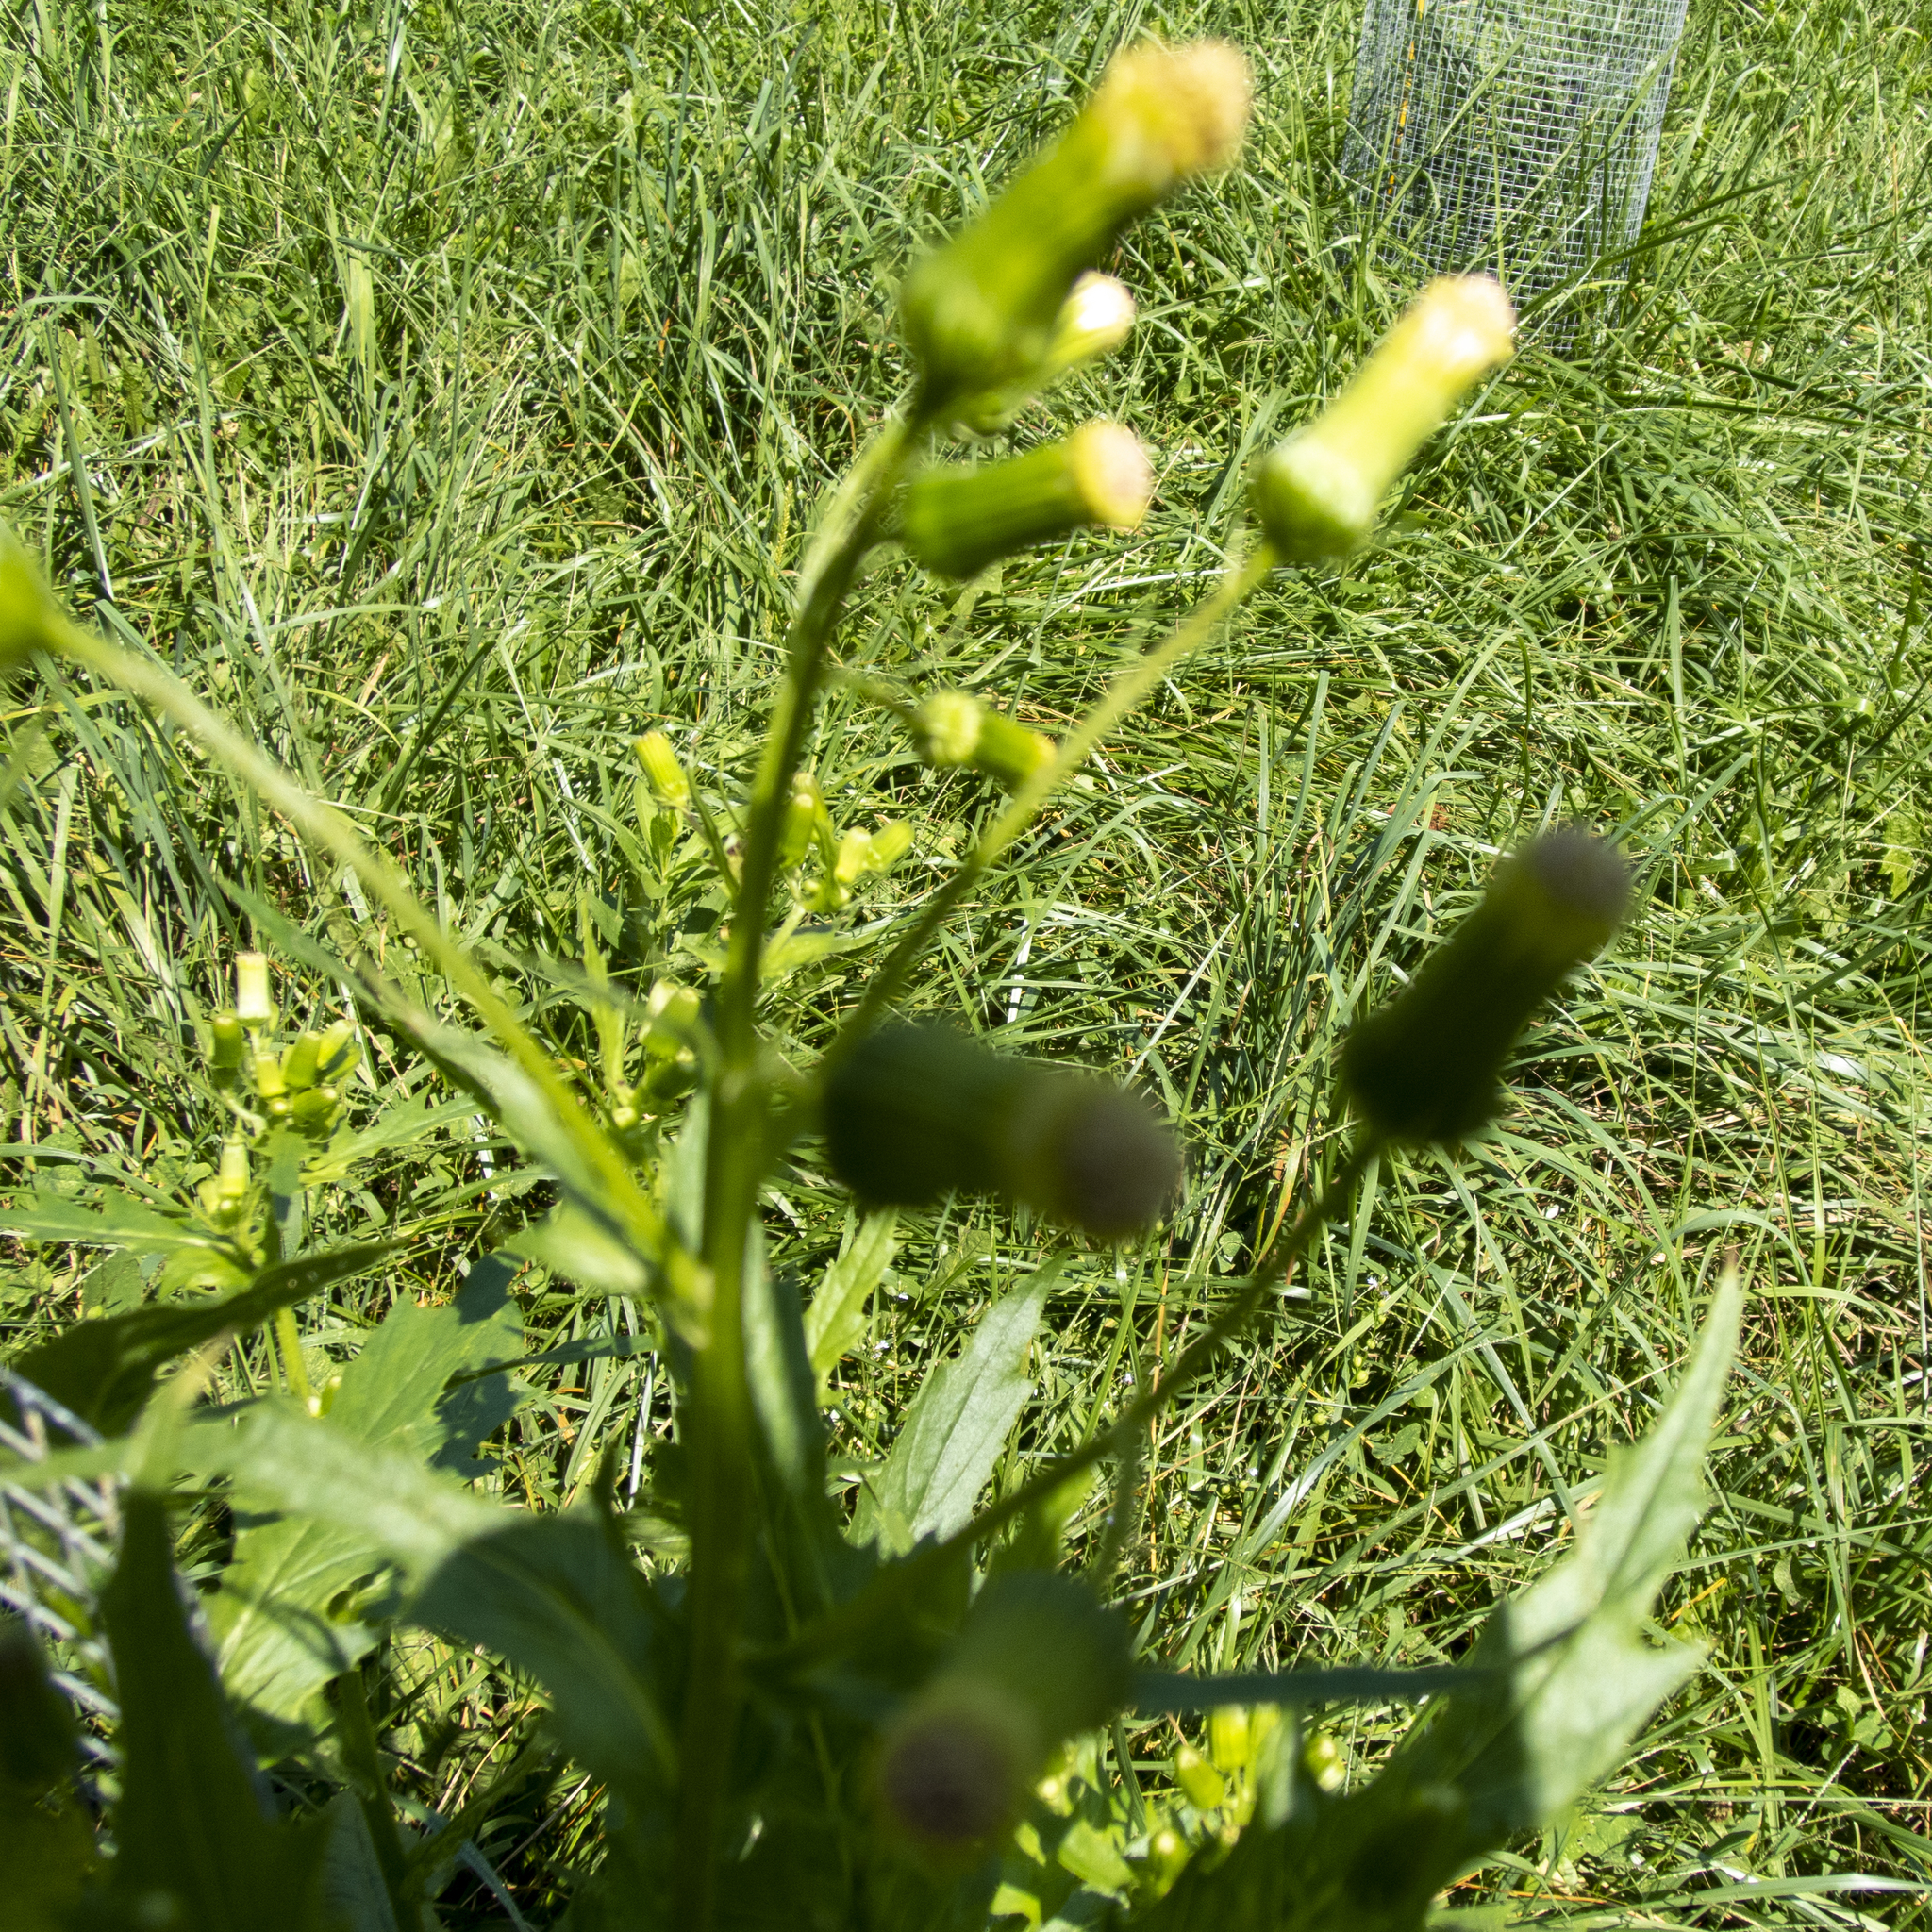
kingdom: Plantae
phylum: Tracheophyta
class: Magnoliopsida
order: Asterales
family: Asteraceae
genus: Erechtites
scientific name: Erechtites hieraciifolius
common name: American burnweed
